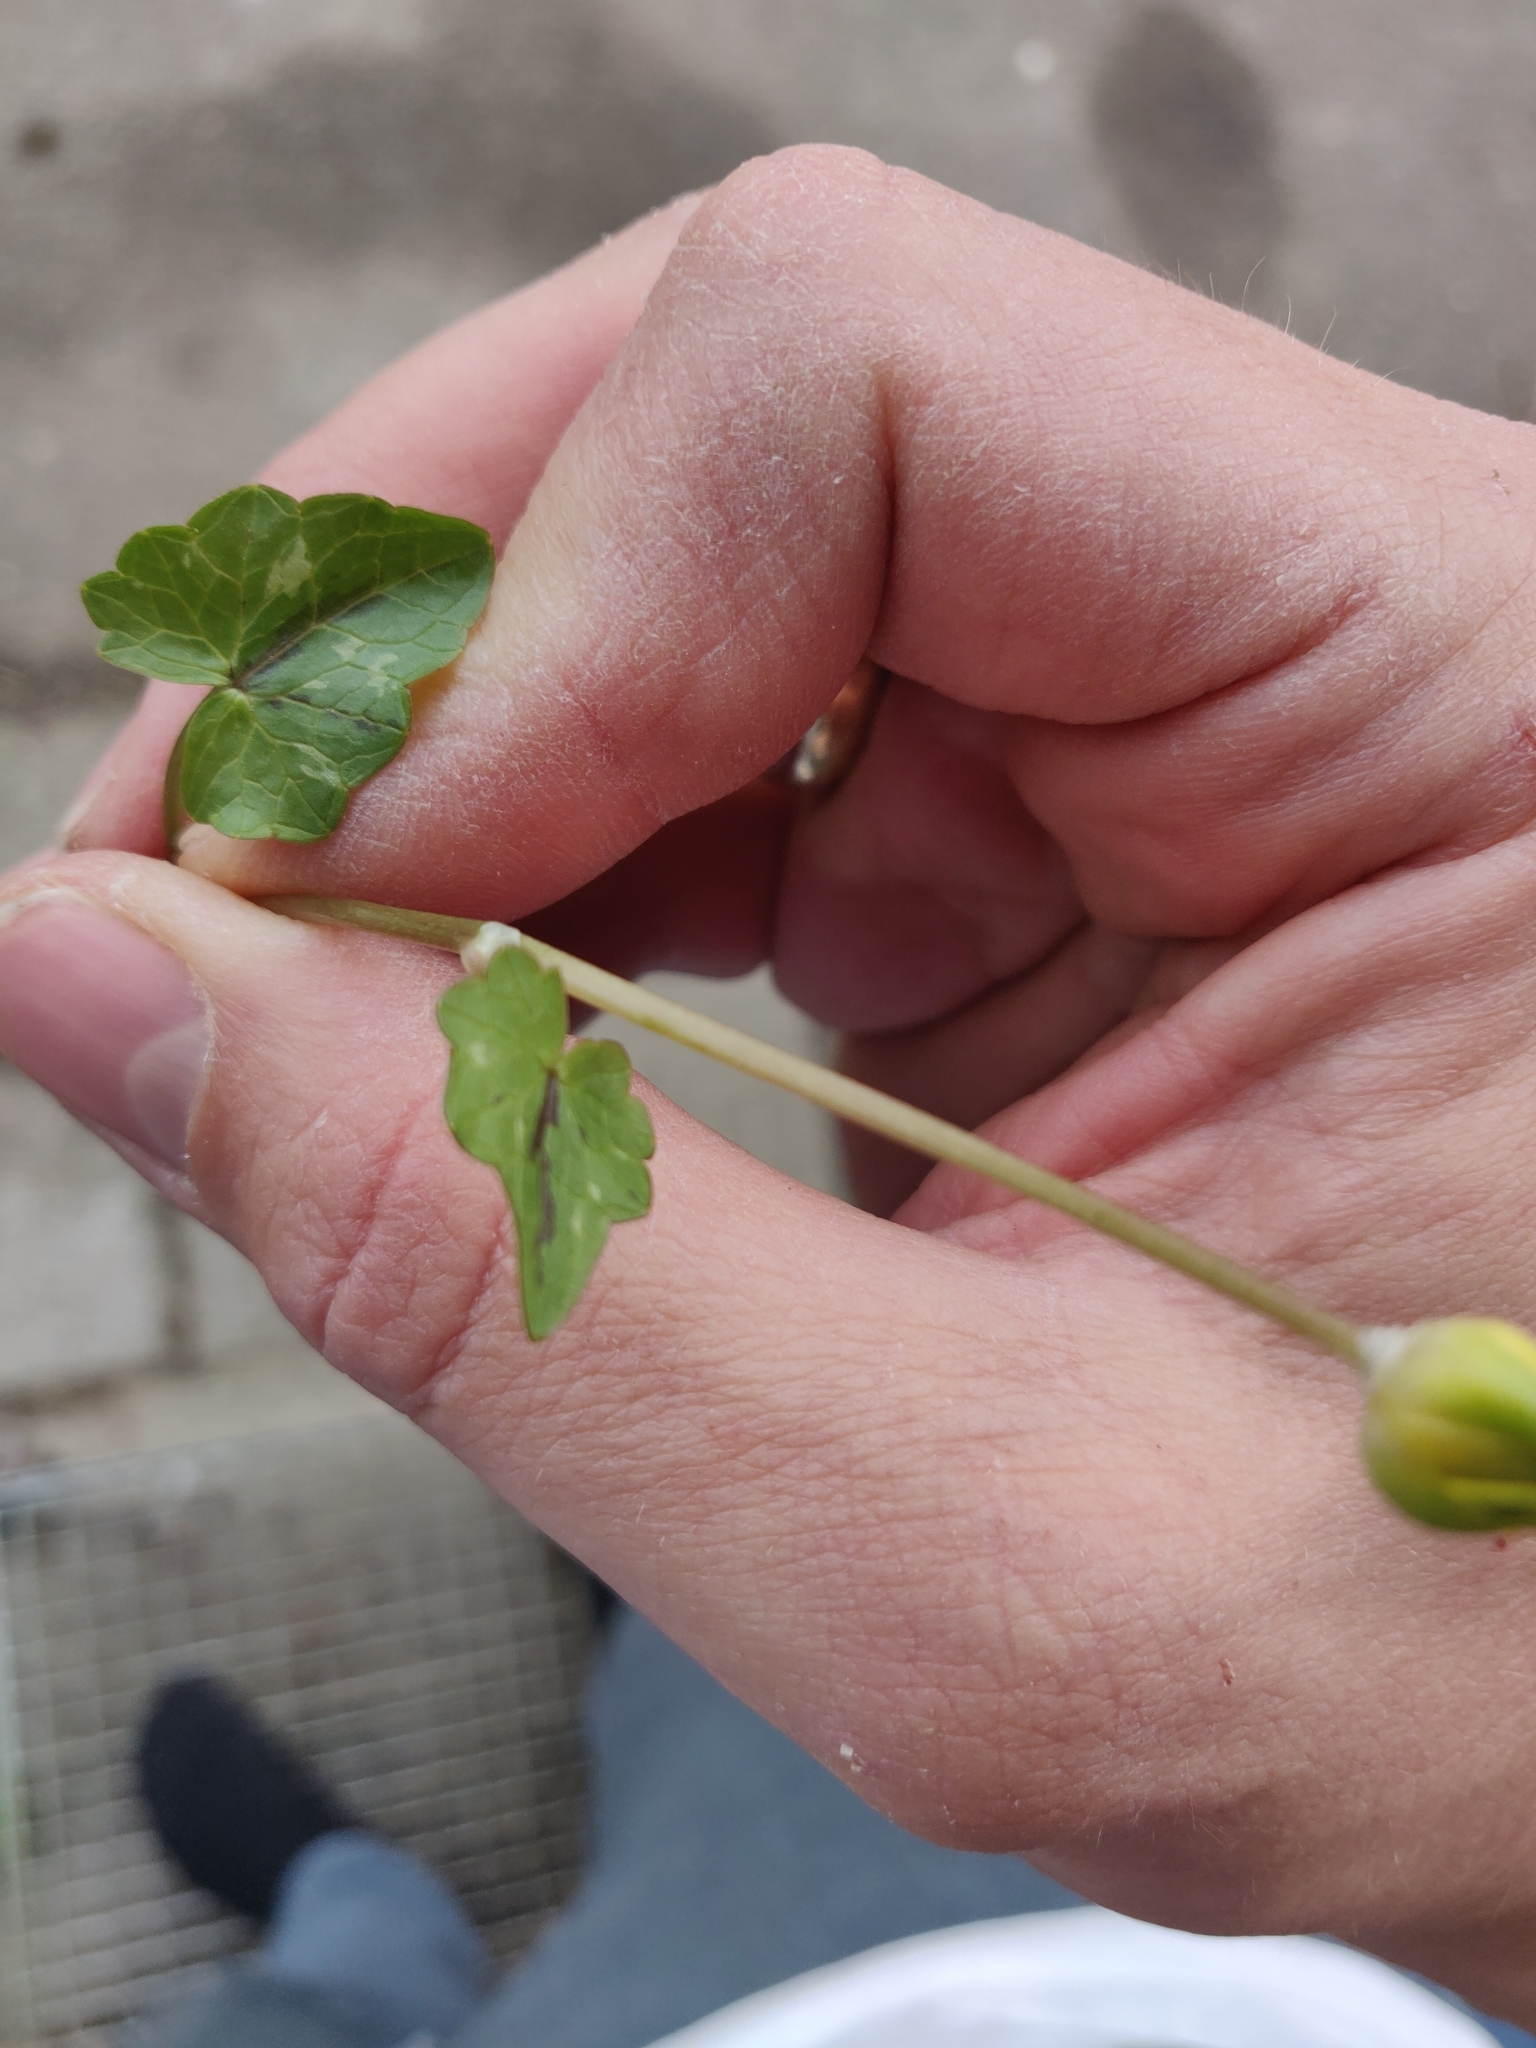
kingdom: Plantae
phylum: Tracheophyta
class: Magnoliopsida
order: Ranunculales
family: Ranunculaceae
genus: Ficaria
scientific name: Ficaria verna
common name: Lesser celandine
